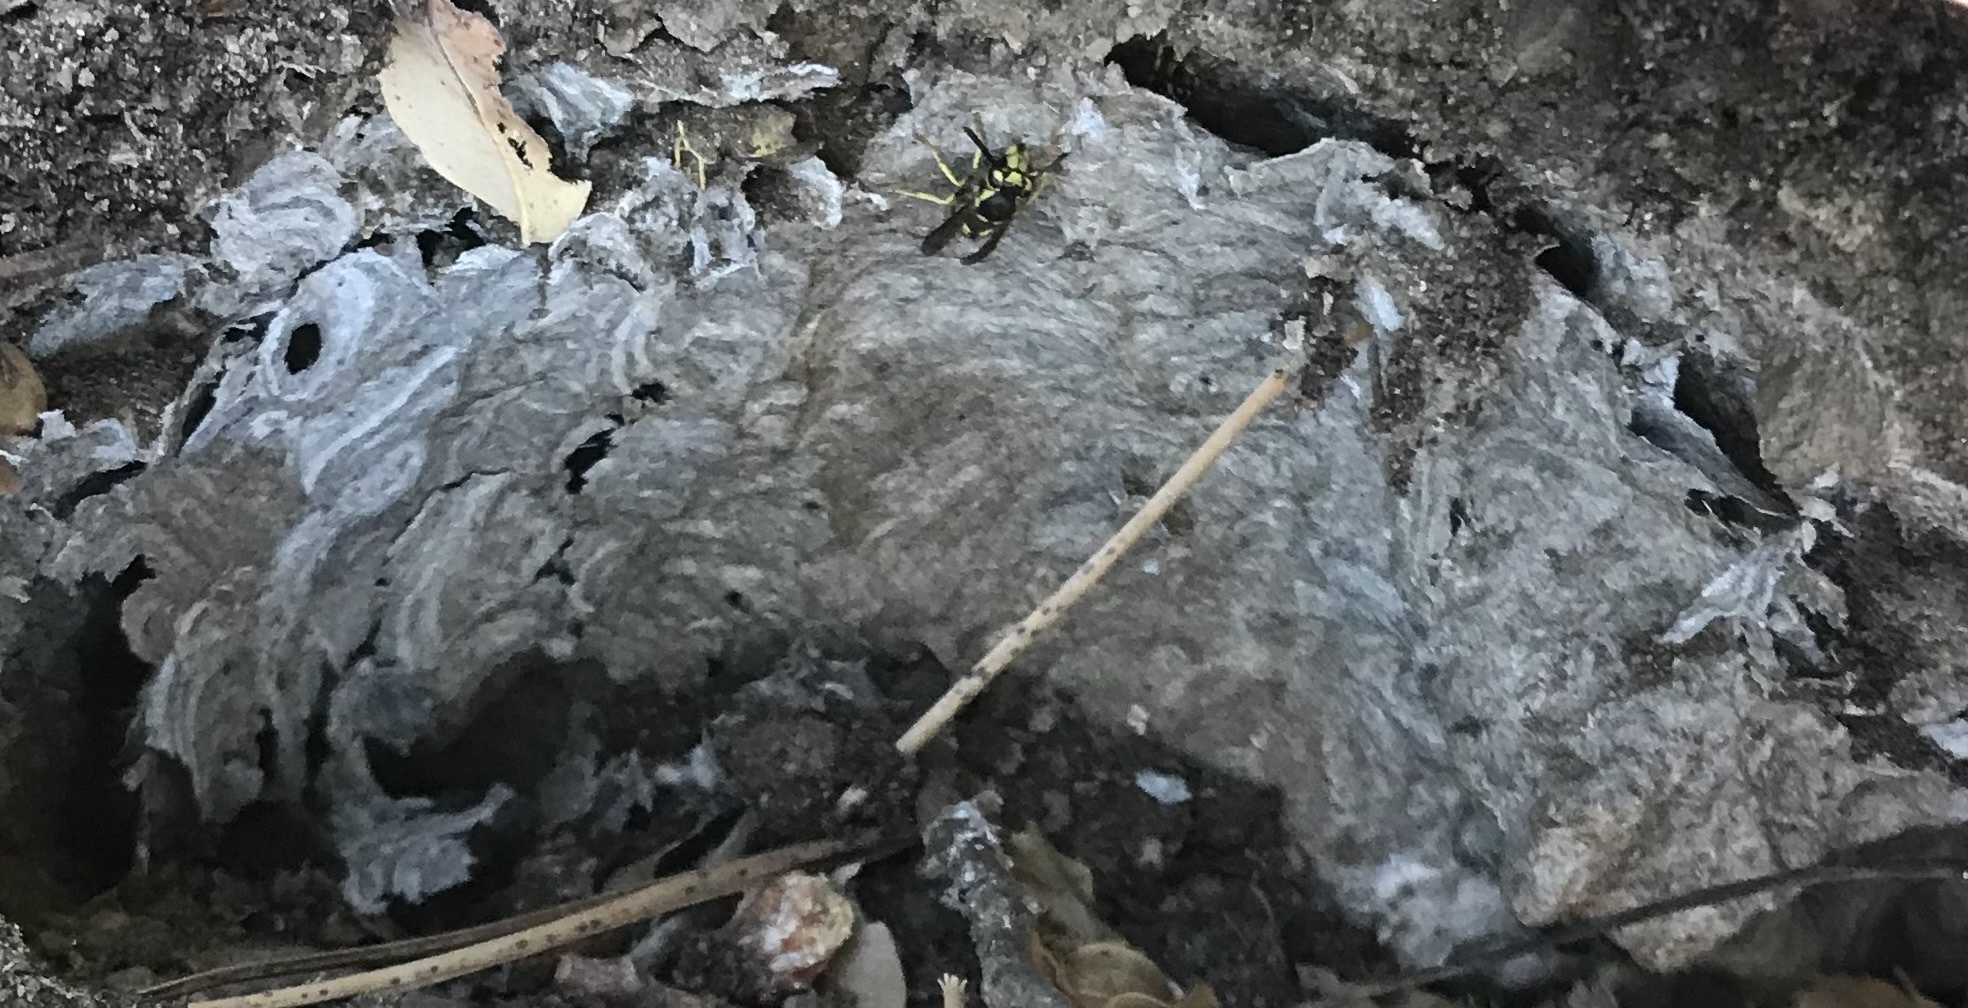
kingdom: Animalia
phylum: Arthropoda
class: Insecta
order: Hymenoptera
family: Vespidae
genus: Vespula
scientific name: Vespula pensylvanica
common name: Western yellowjacket
